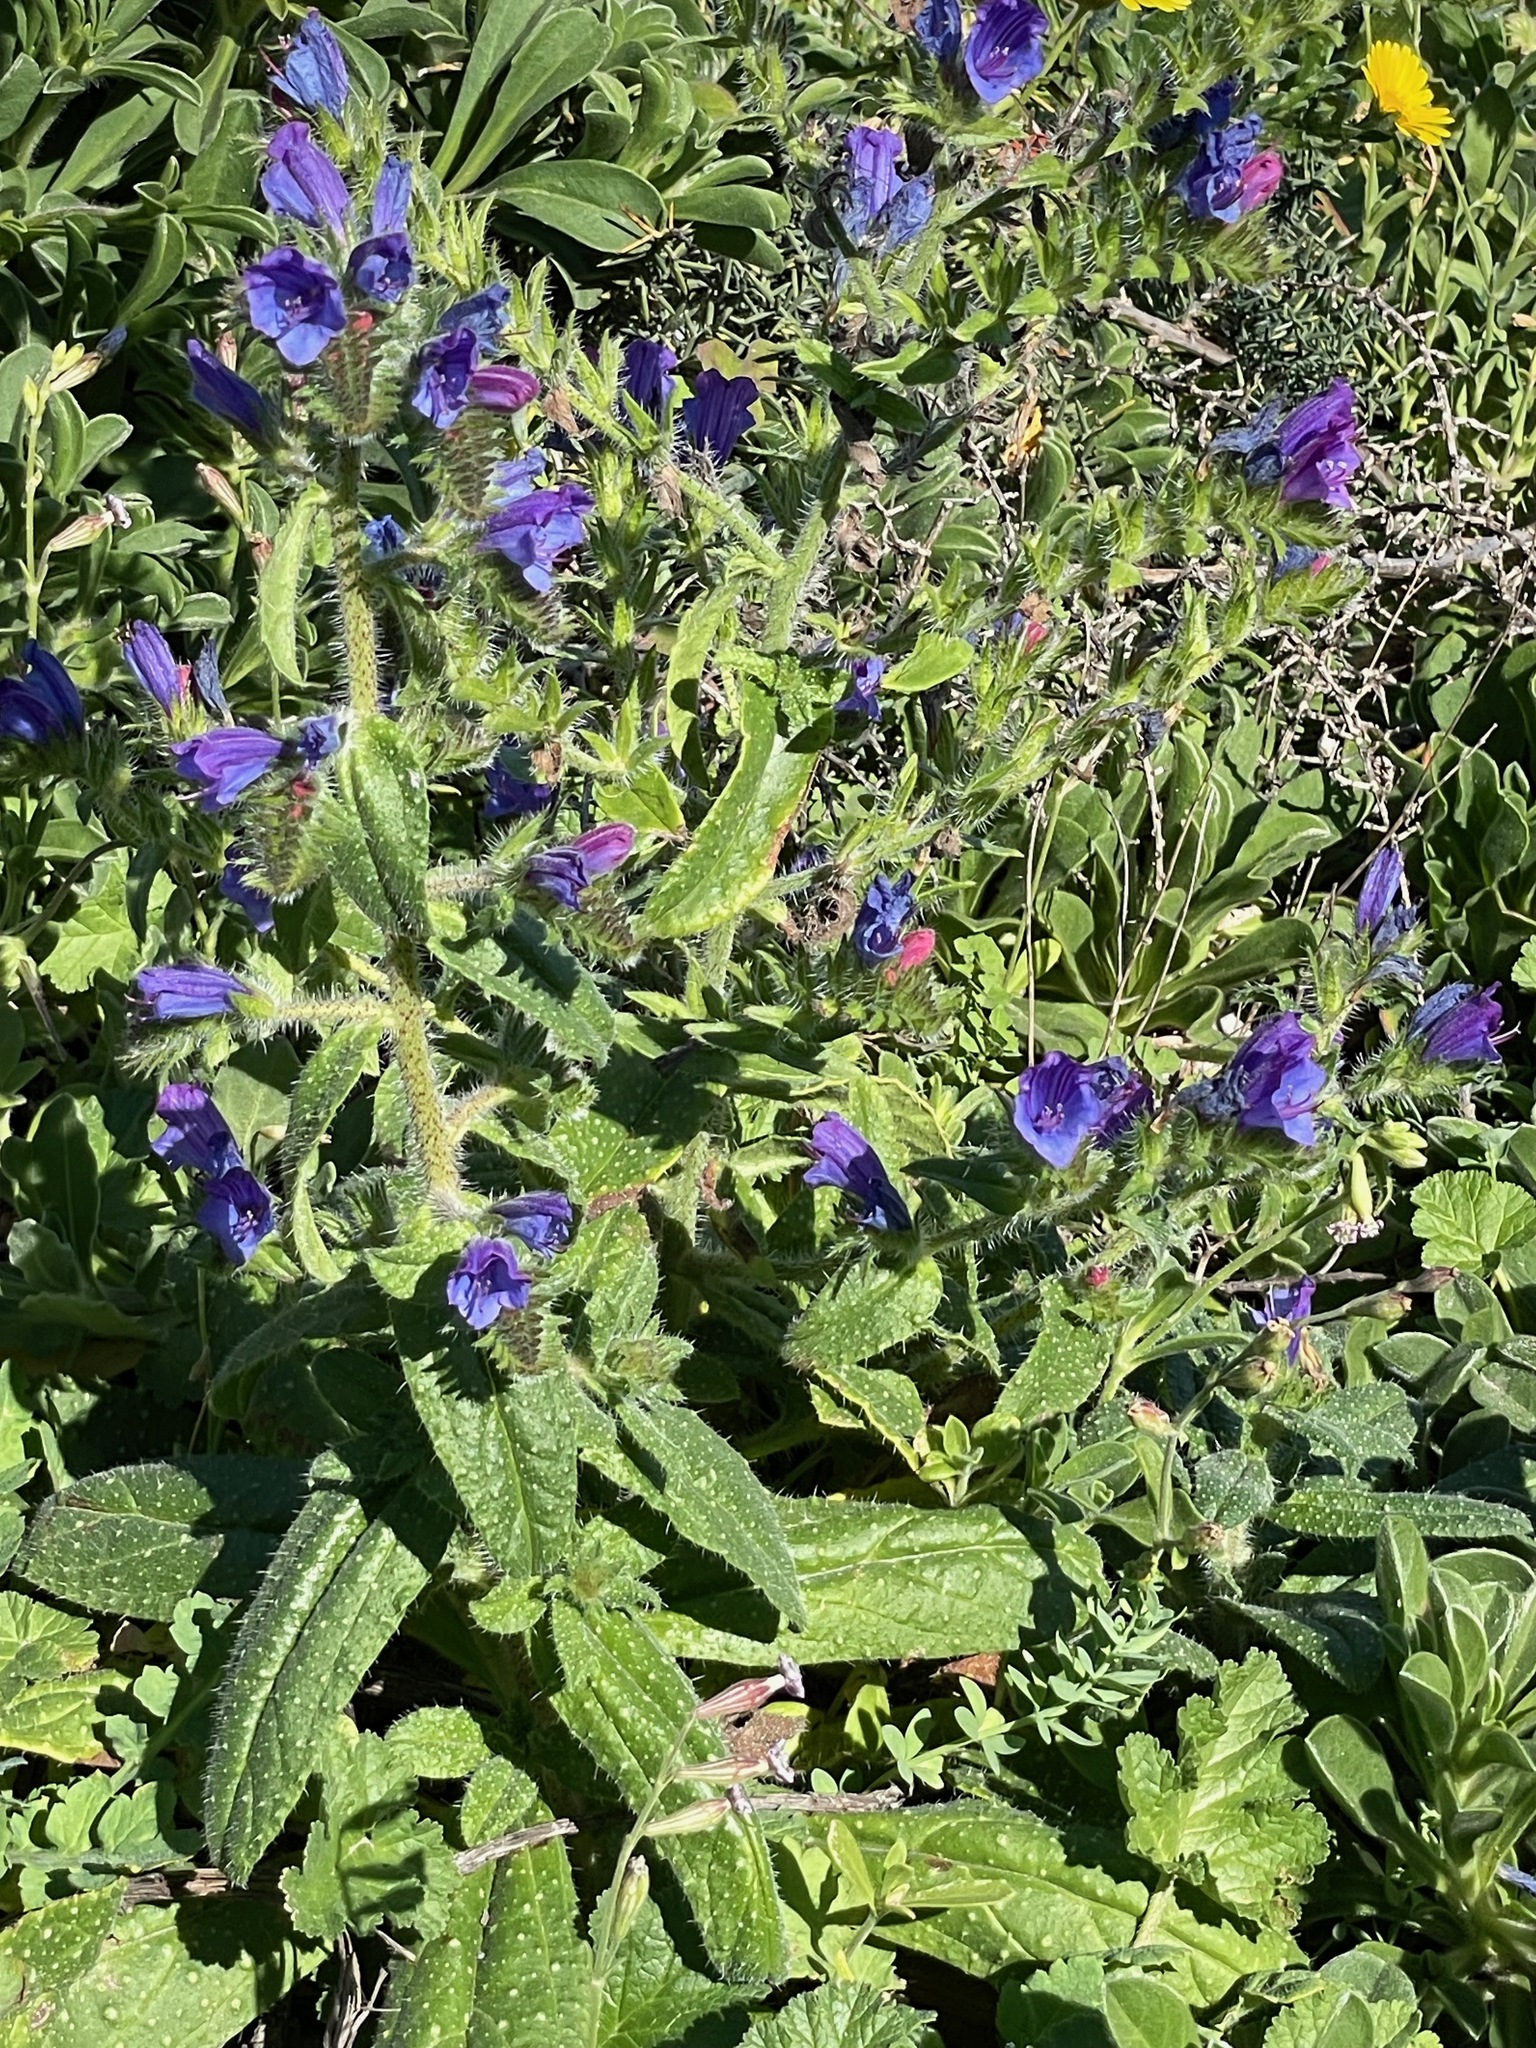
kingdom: Plantae
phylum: Tracheophyta
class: Magnoliopsida
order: Boraginales
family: Boraginaceae
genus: Echium
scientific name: Echium creticum
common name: Cretan viper's bugloss
